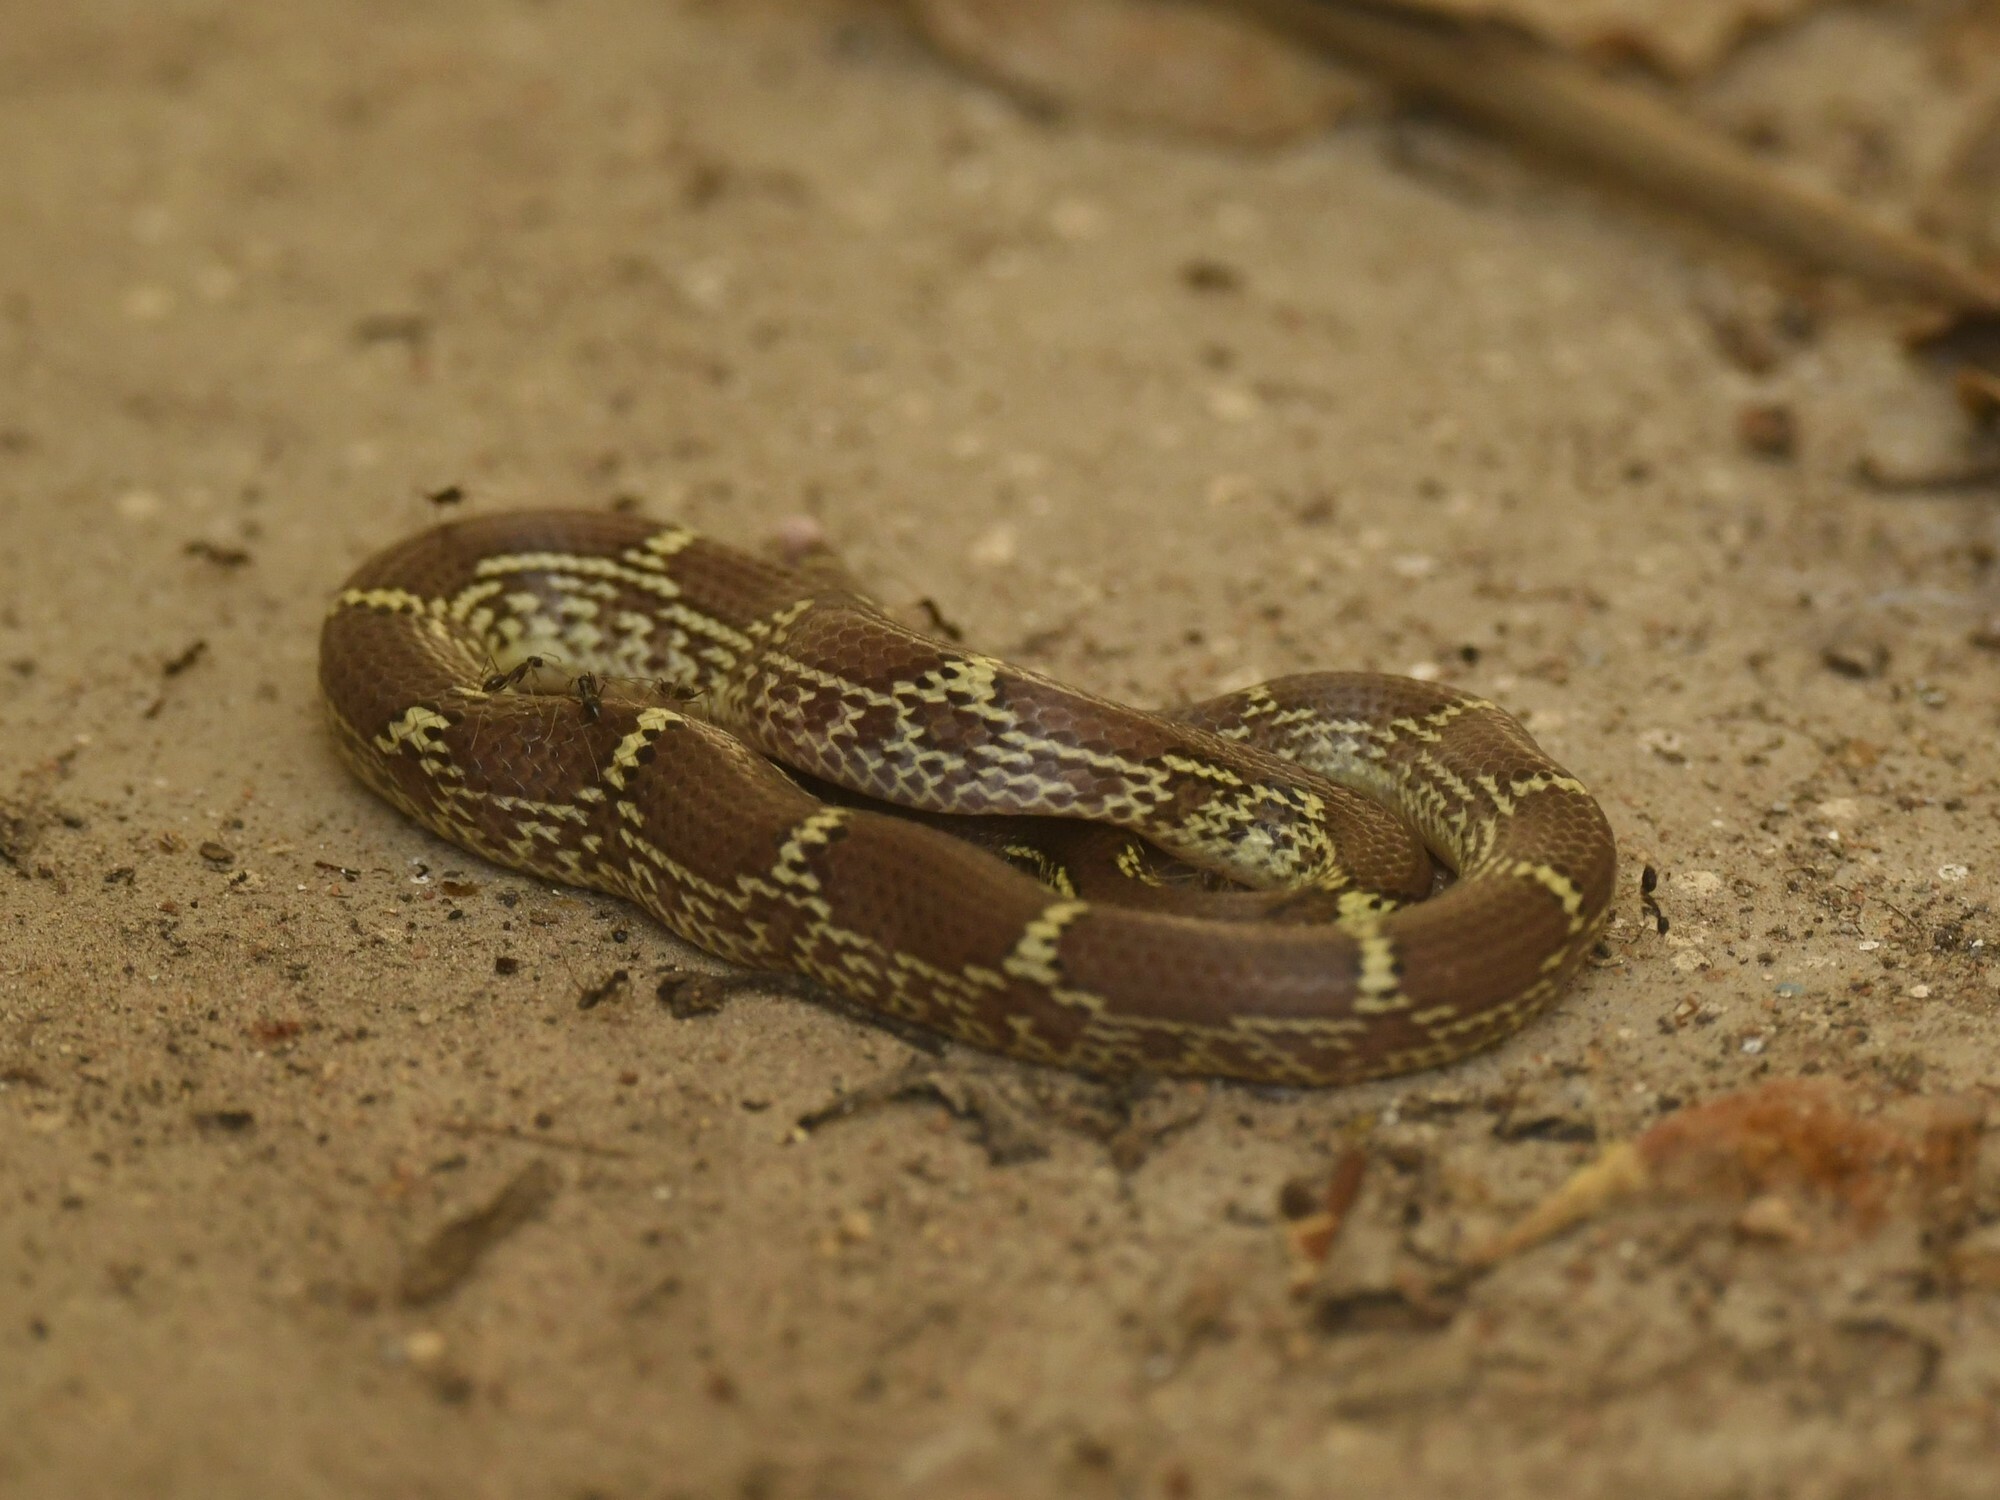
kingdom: Animalia
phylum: Chordata
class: Squamata
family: Colubridae
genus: Lycodon
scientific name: Lycodon fasciolatus
